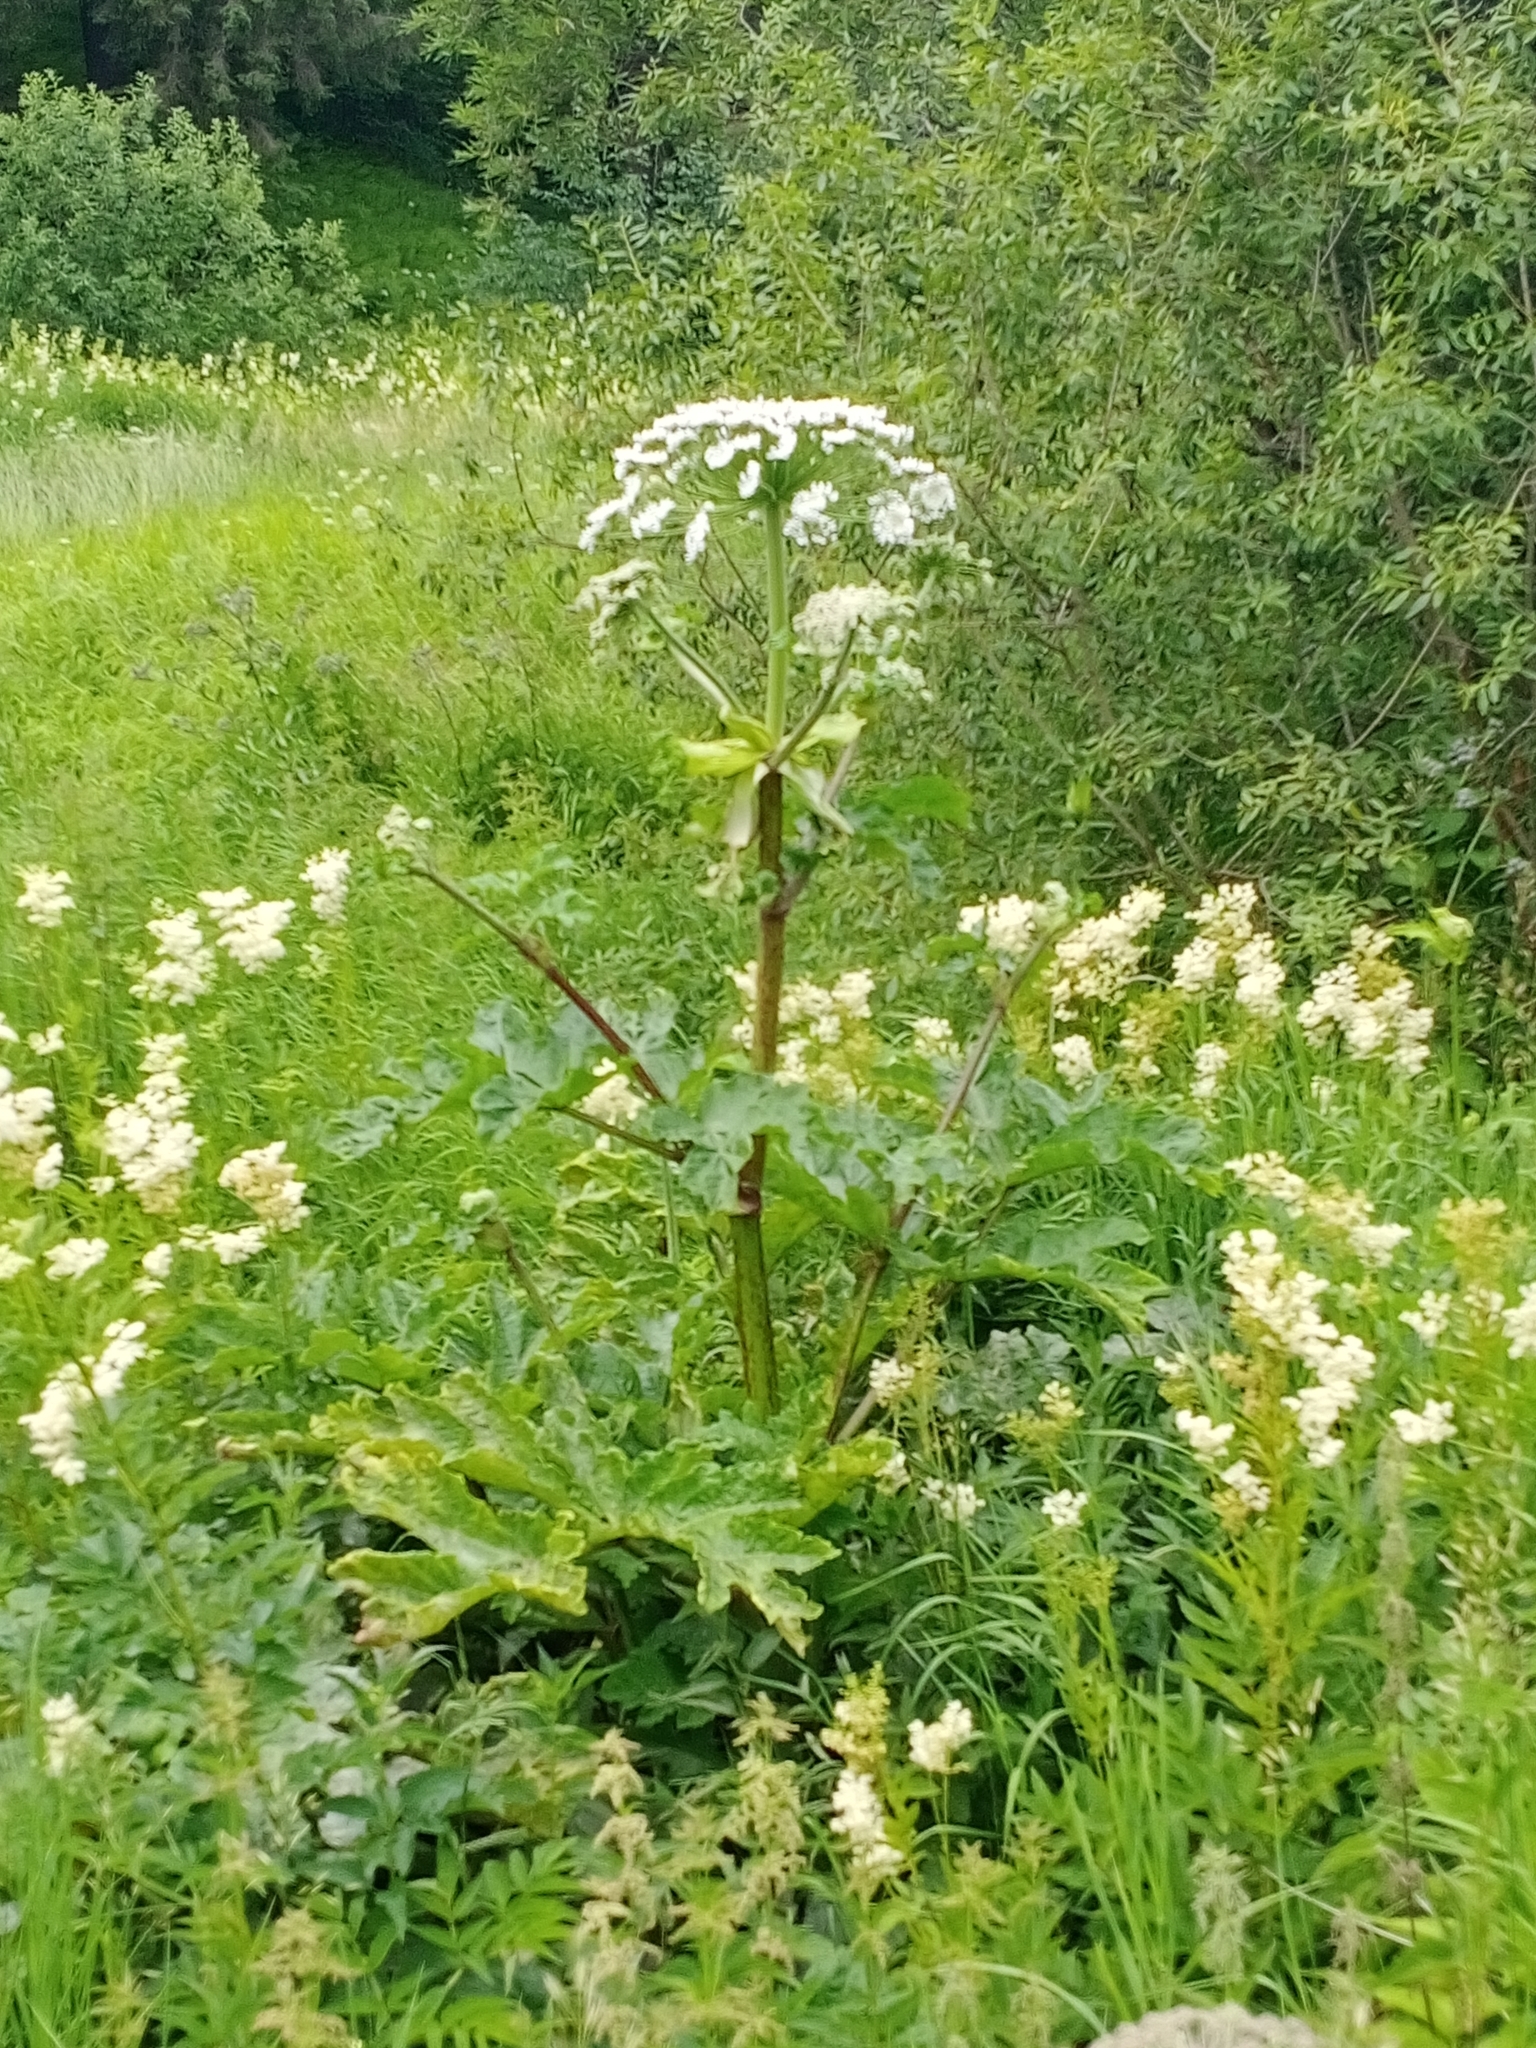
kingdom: Plantae
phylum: Tracheophyta
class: Magnoliopsida
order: Apiales
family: Apiaceae
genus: Heracleum
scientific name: Heracleum sosnowskyi
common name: Sosnowsky's hogweed
